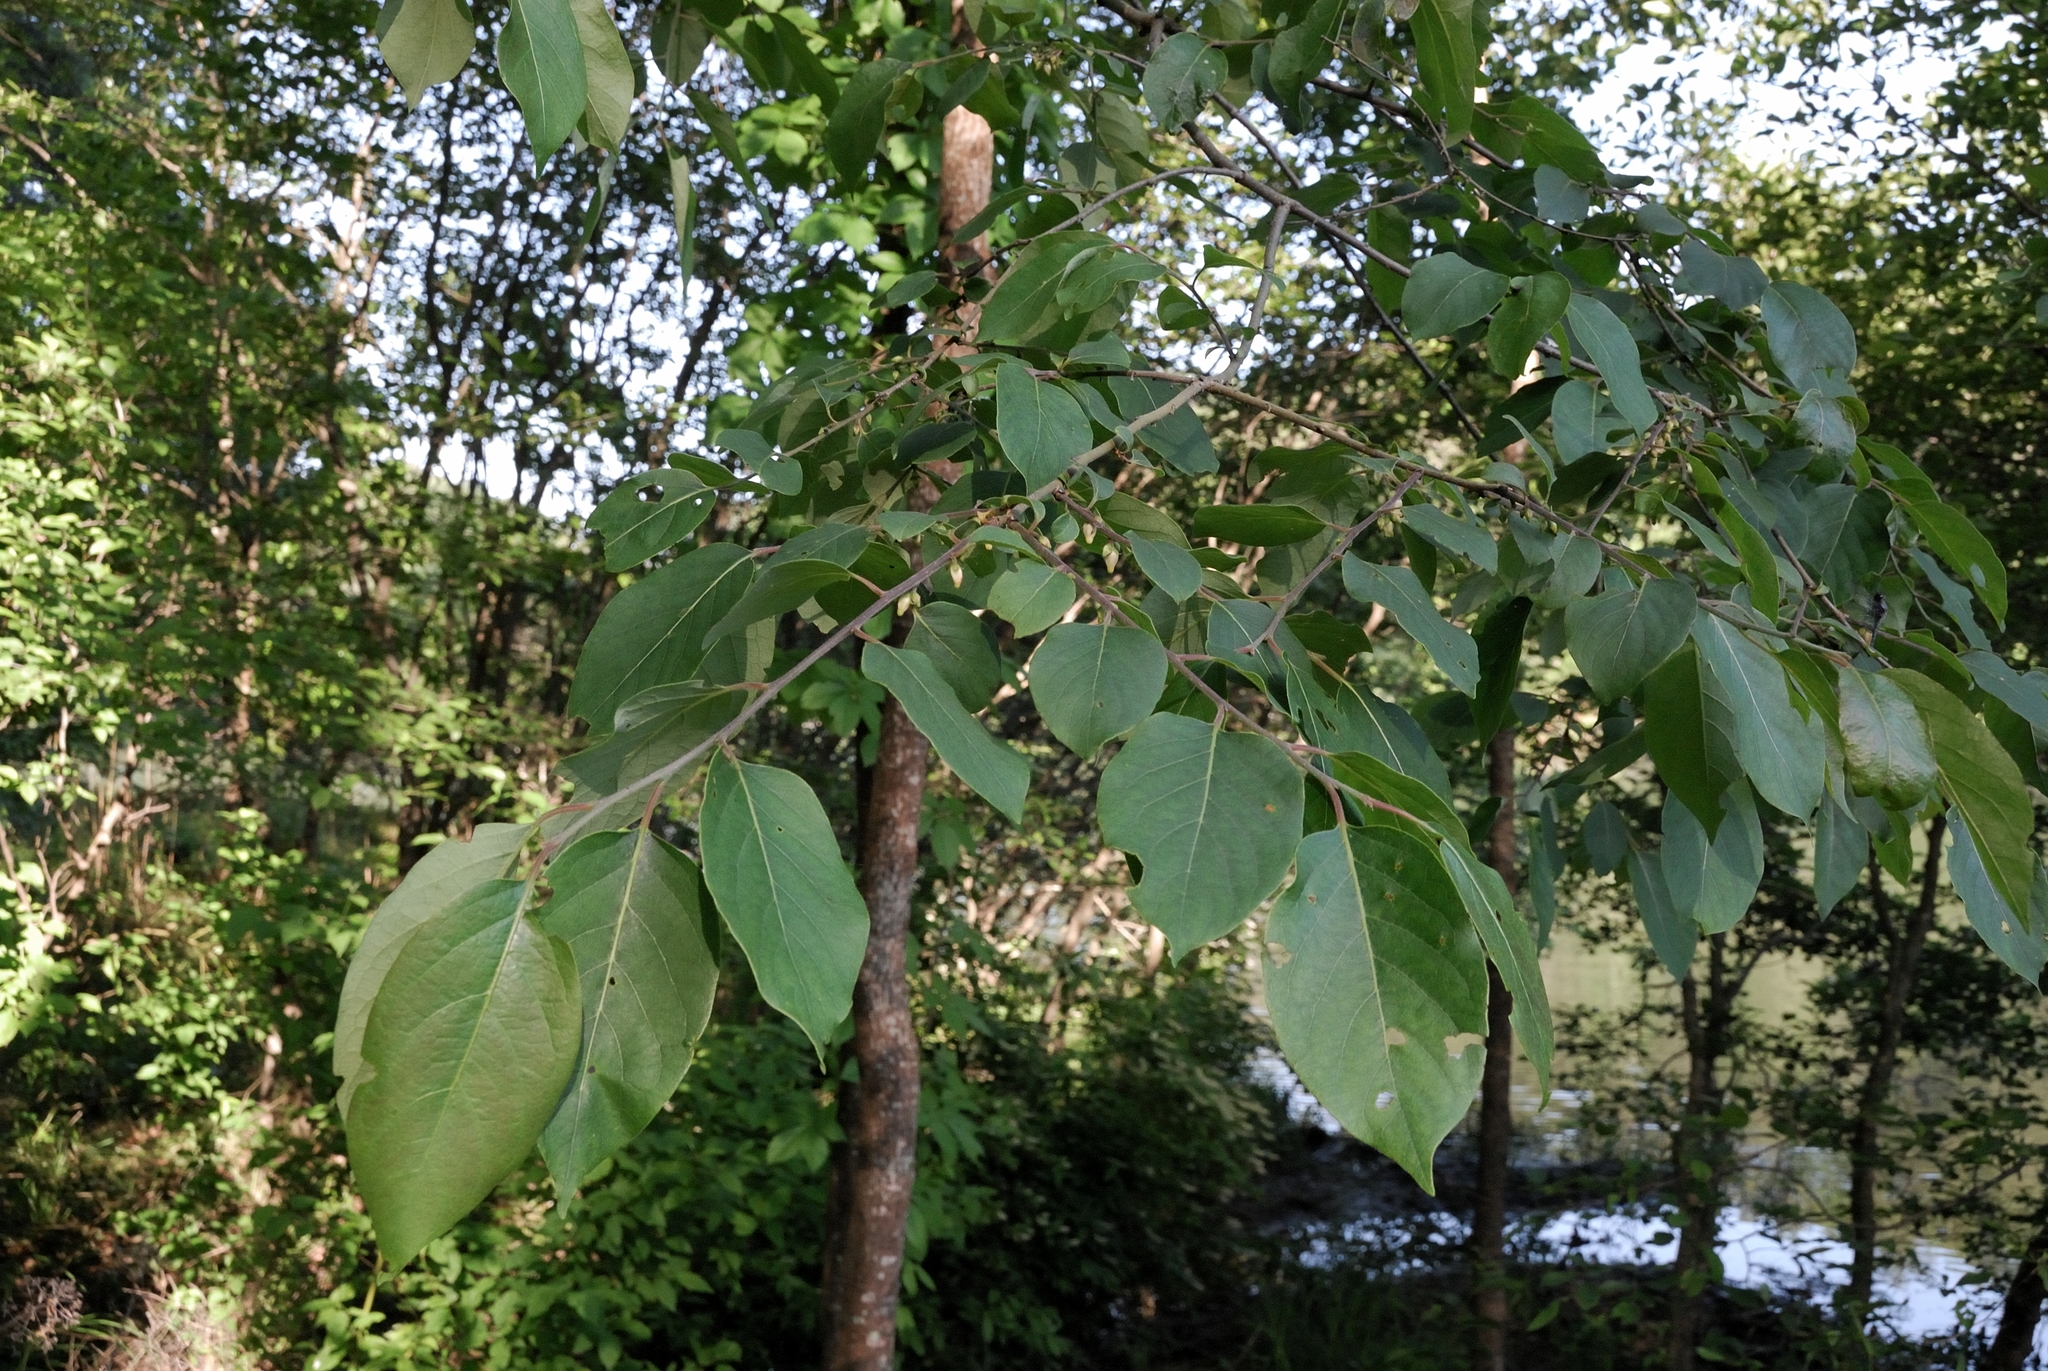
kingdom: Plantae
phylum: Tracheophyta
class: Magnoliopsida
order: Ericales
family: Ebenaceae
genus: Diospyros
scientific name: Diospyros virginiana
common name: Persimmon
